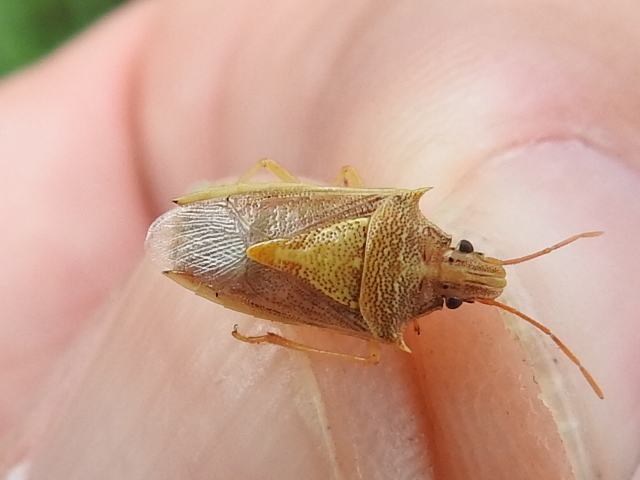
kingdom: Animalia
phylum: Arthropoda
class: Insecta
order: Hemiptera
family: Pentatomidae
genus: Oebalus
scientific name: Oebalus pugnax
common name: Rice stink bug
